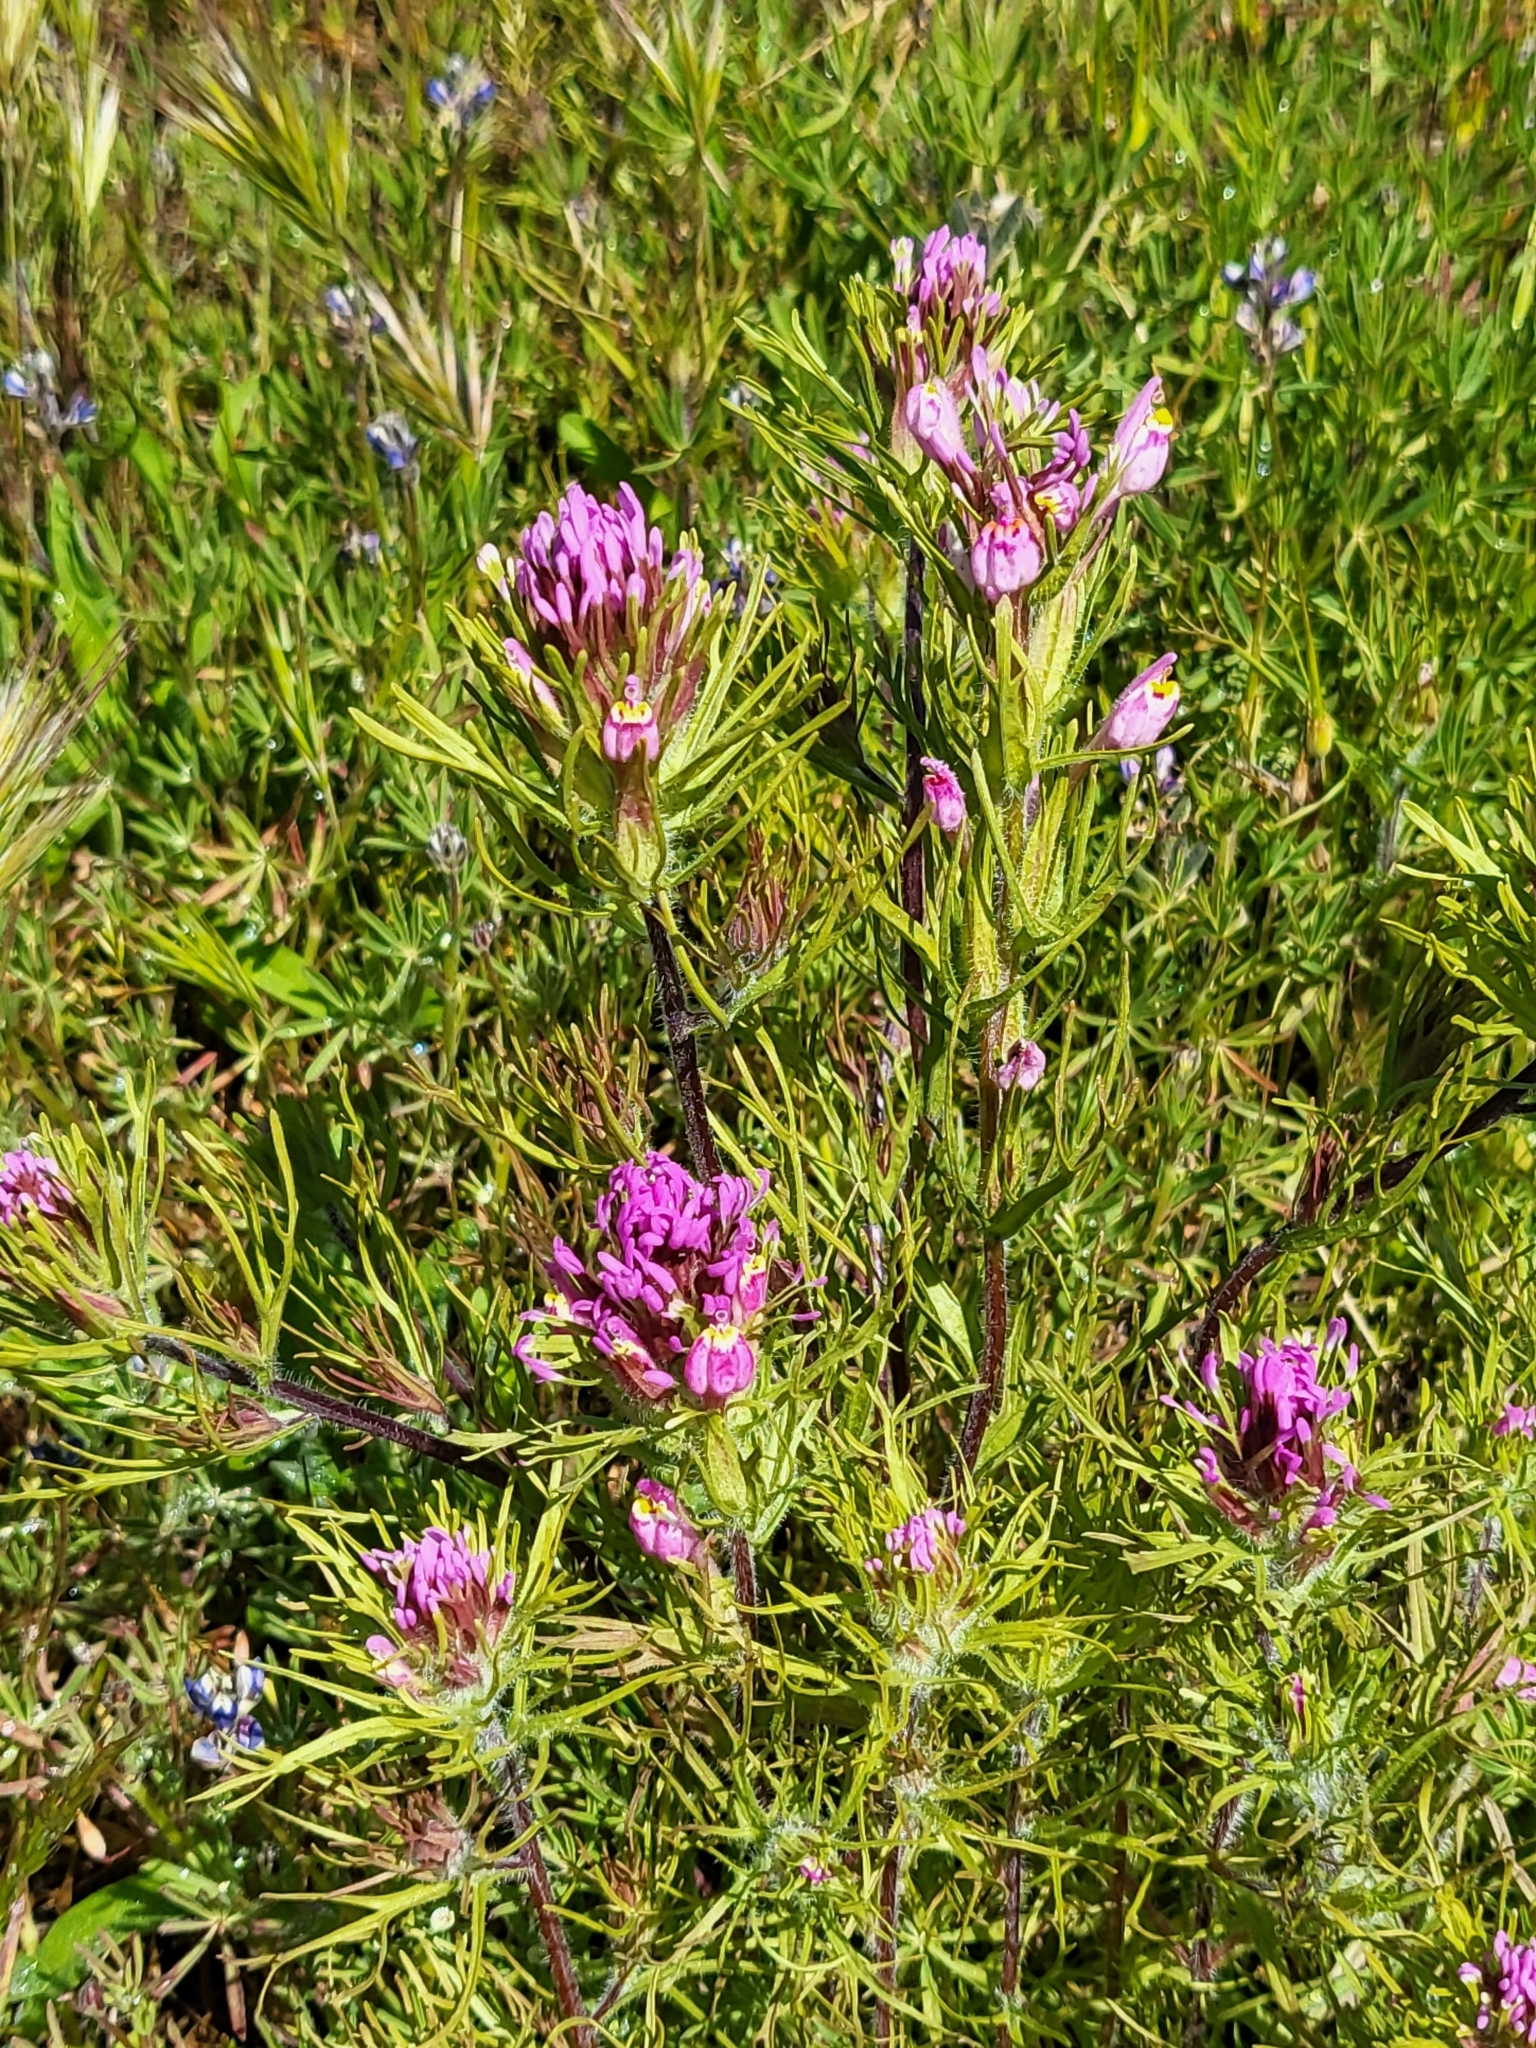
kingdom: Plantae
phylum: Tracheophyta
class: Magnoliopsida
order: Lamiales
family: Orobanchaceae
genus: Castilleja
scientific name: Castilleja exserta
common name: Purple owl-clover
